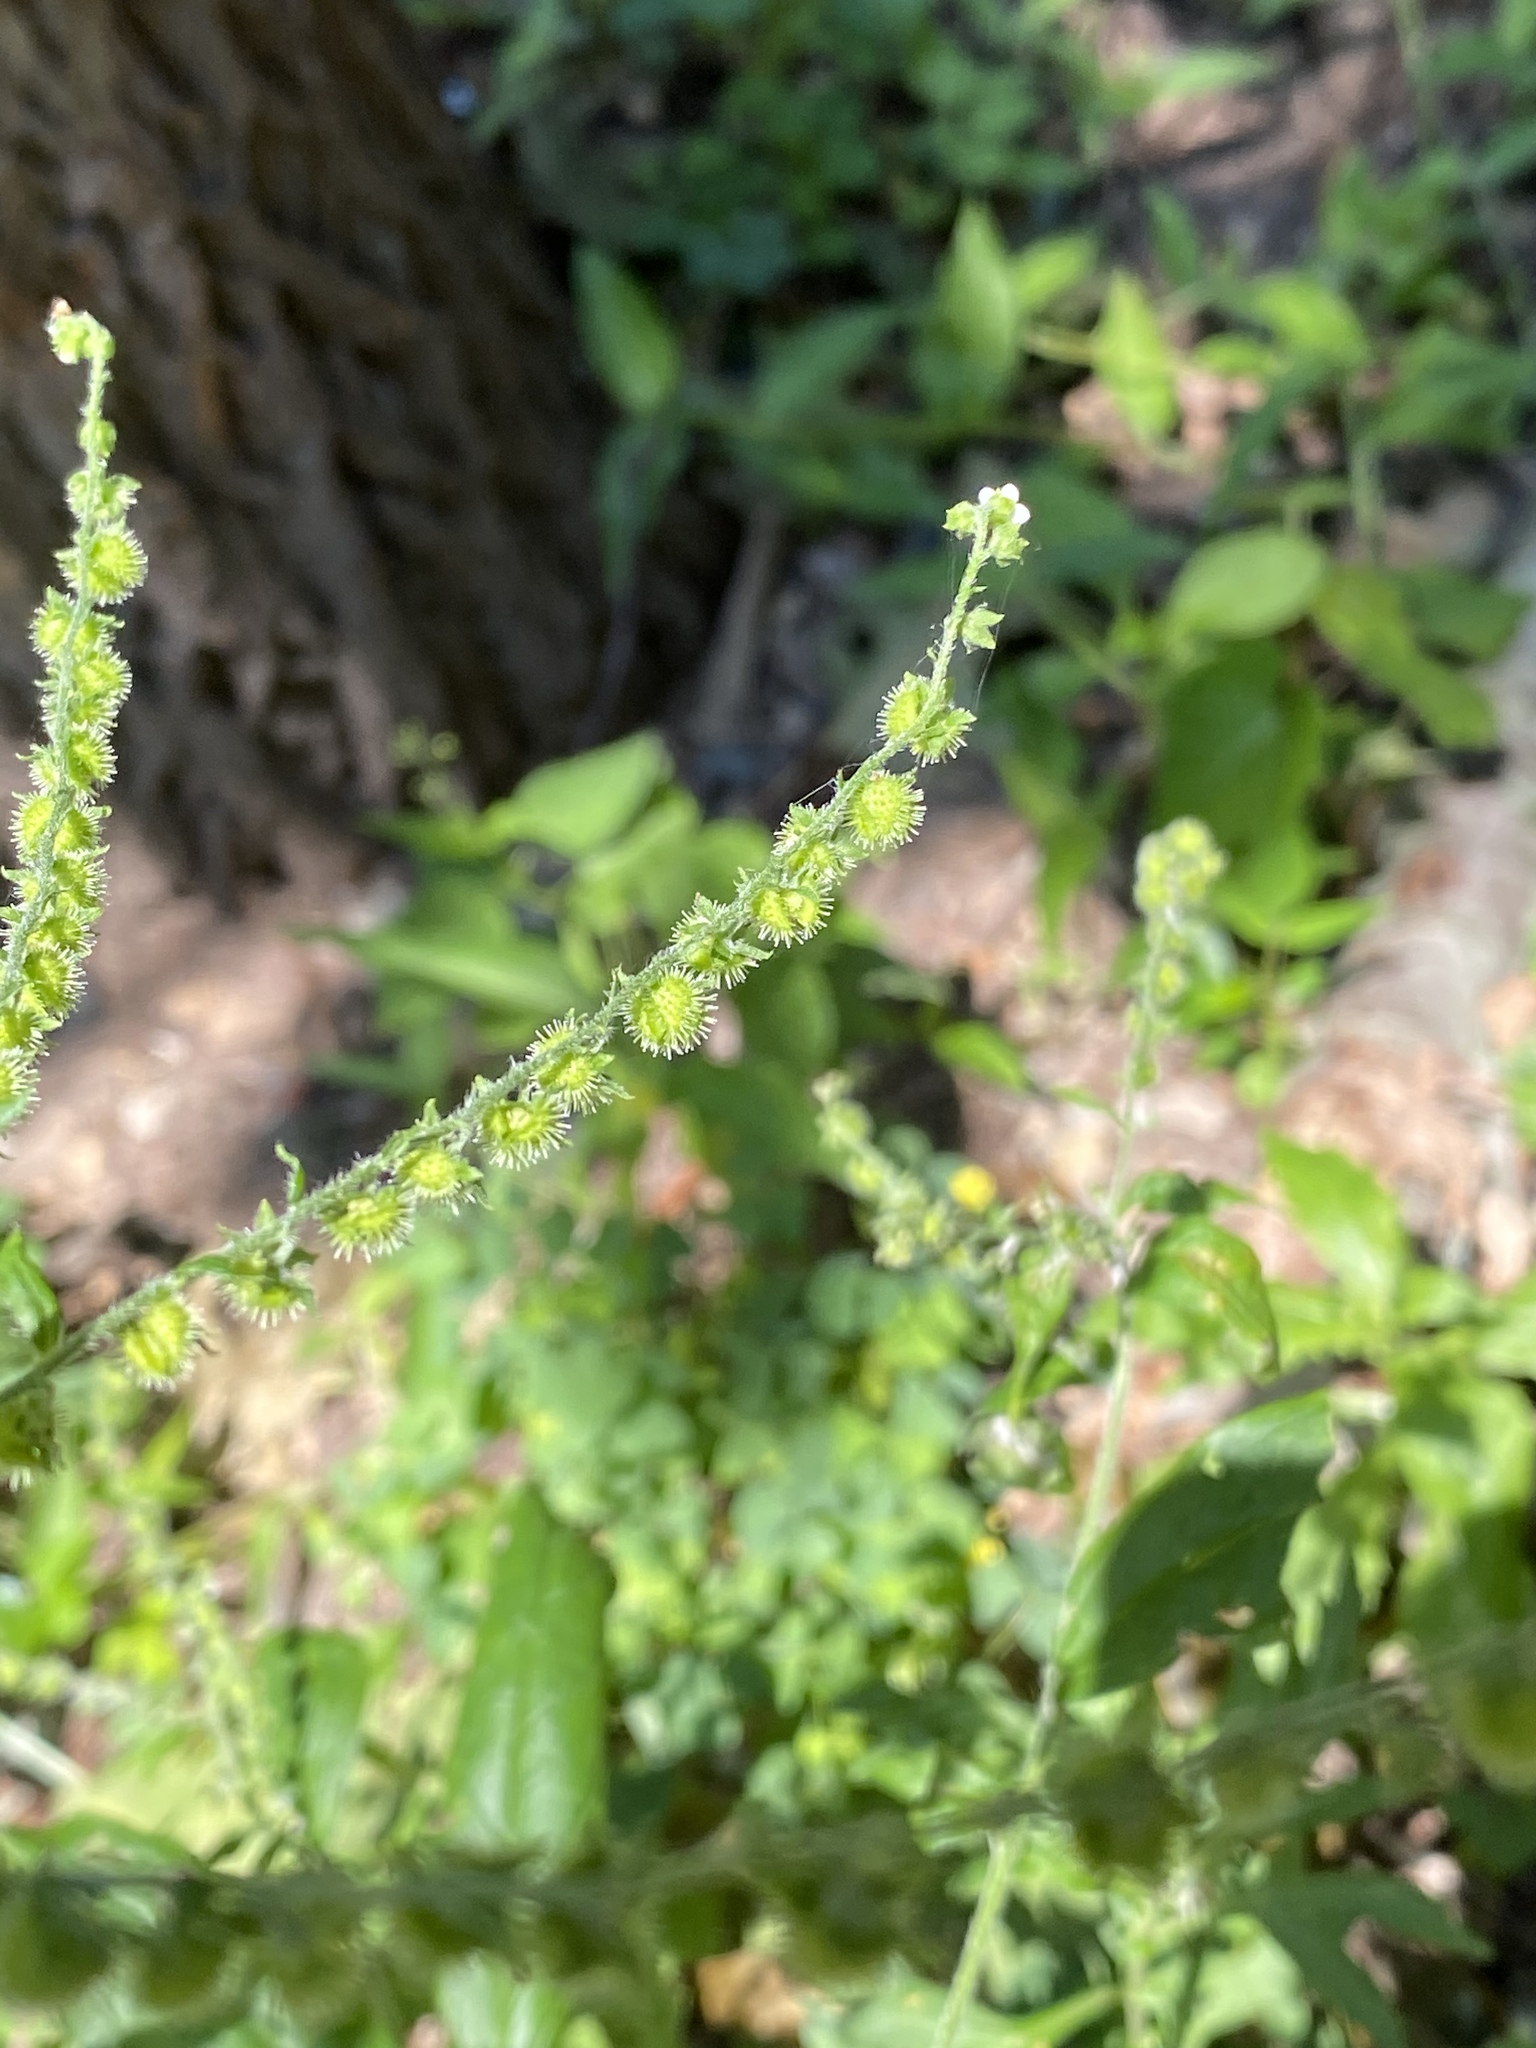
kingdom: Plantae
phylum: Tracheophyta
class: Magnoliopsida
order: Boraginales
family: Boraginaceae
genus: Hackelia
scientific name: Hackelia virginiana
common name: Beggar's-lice
